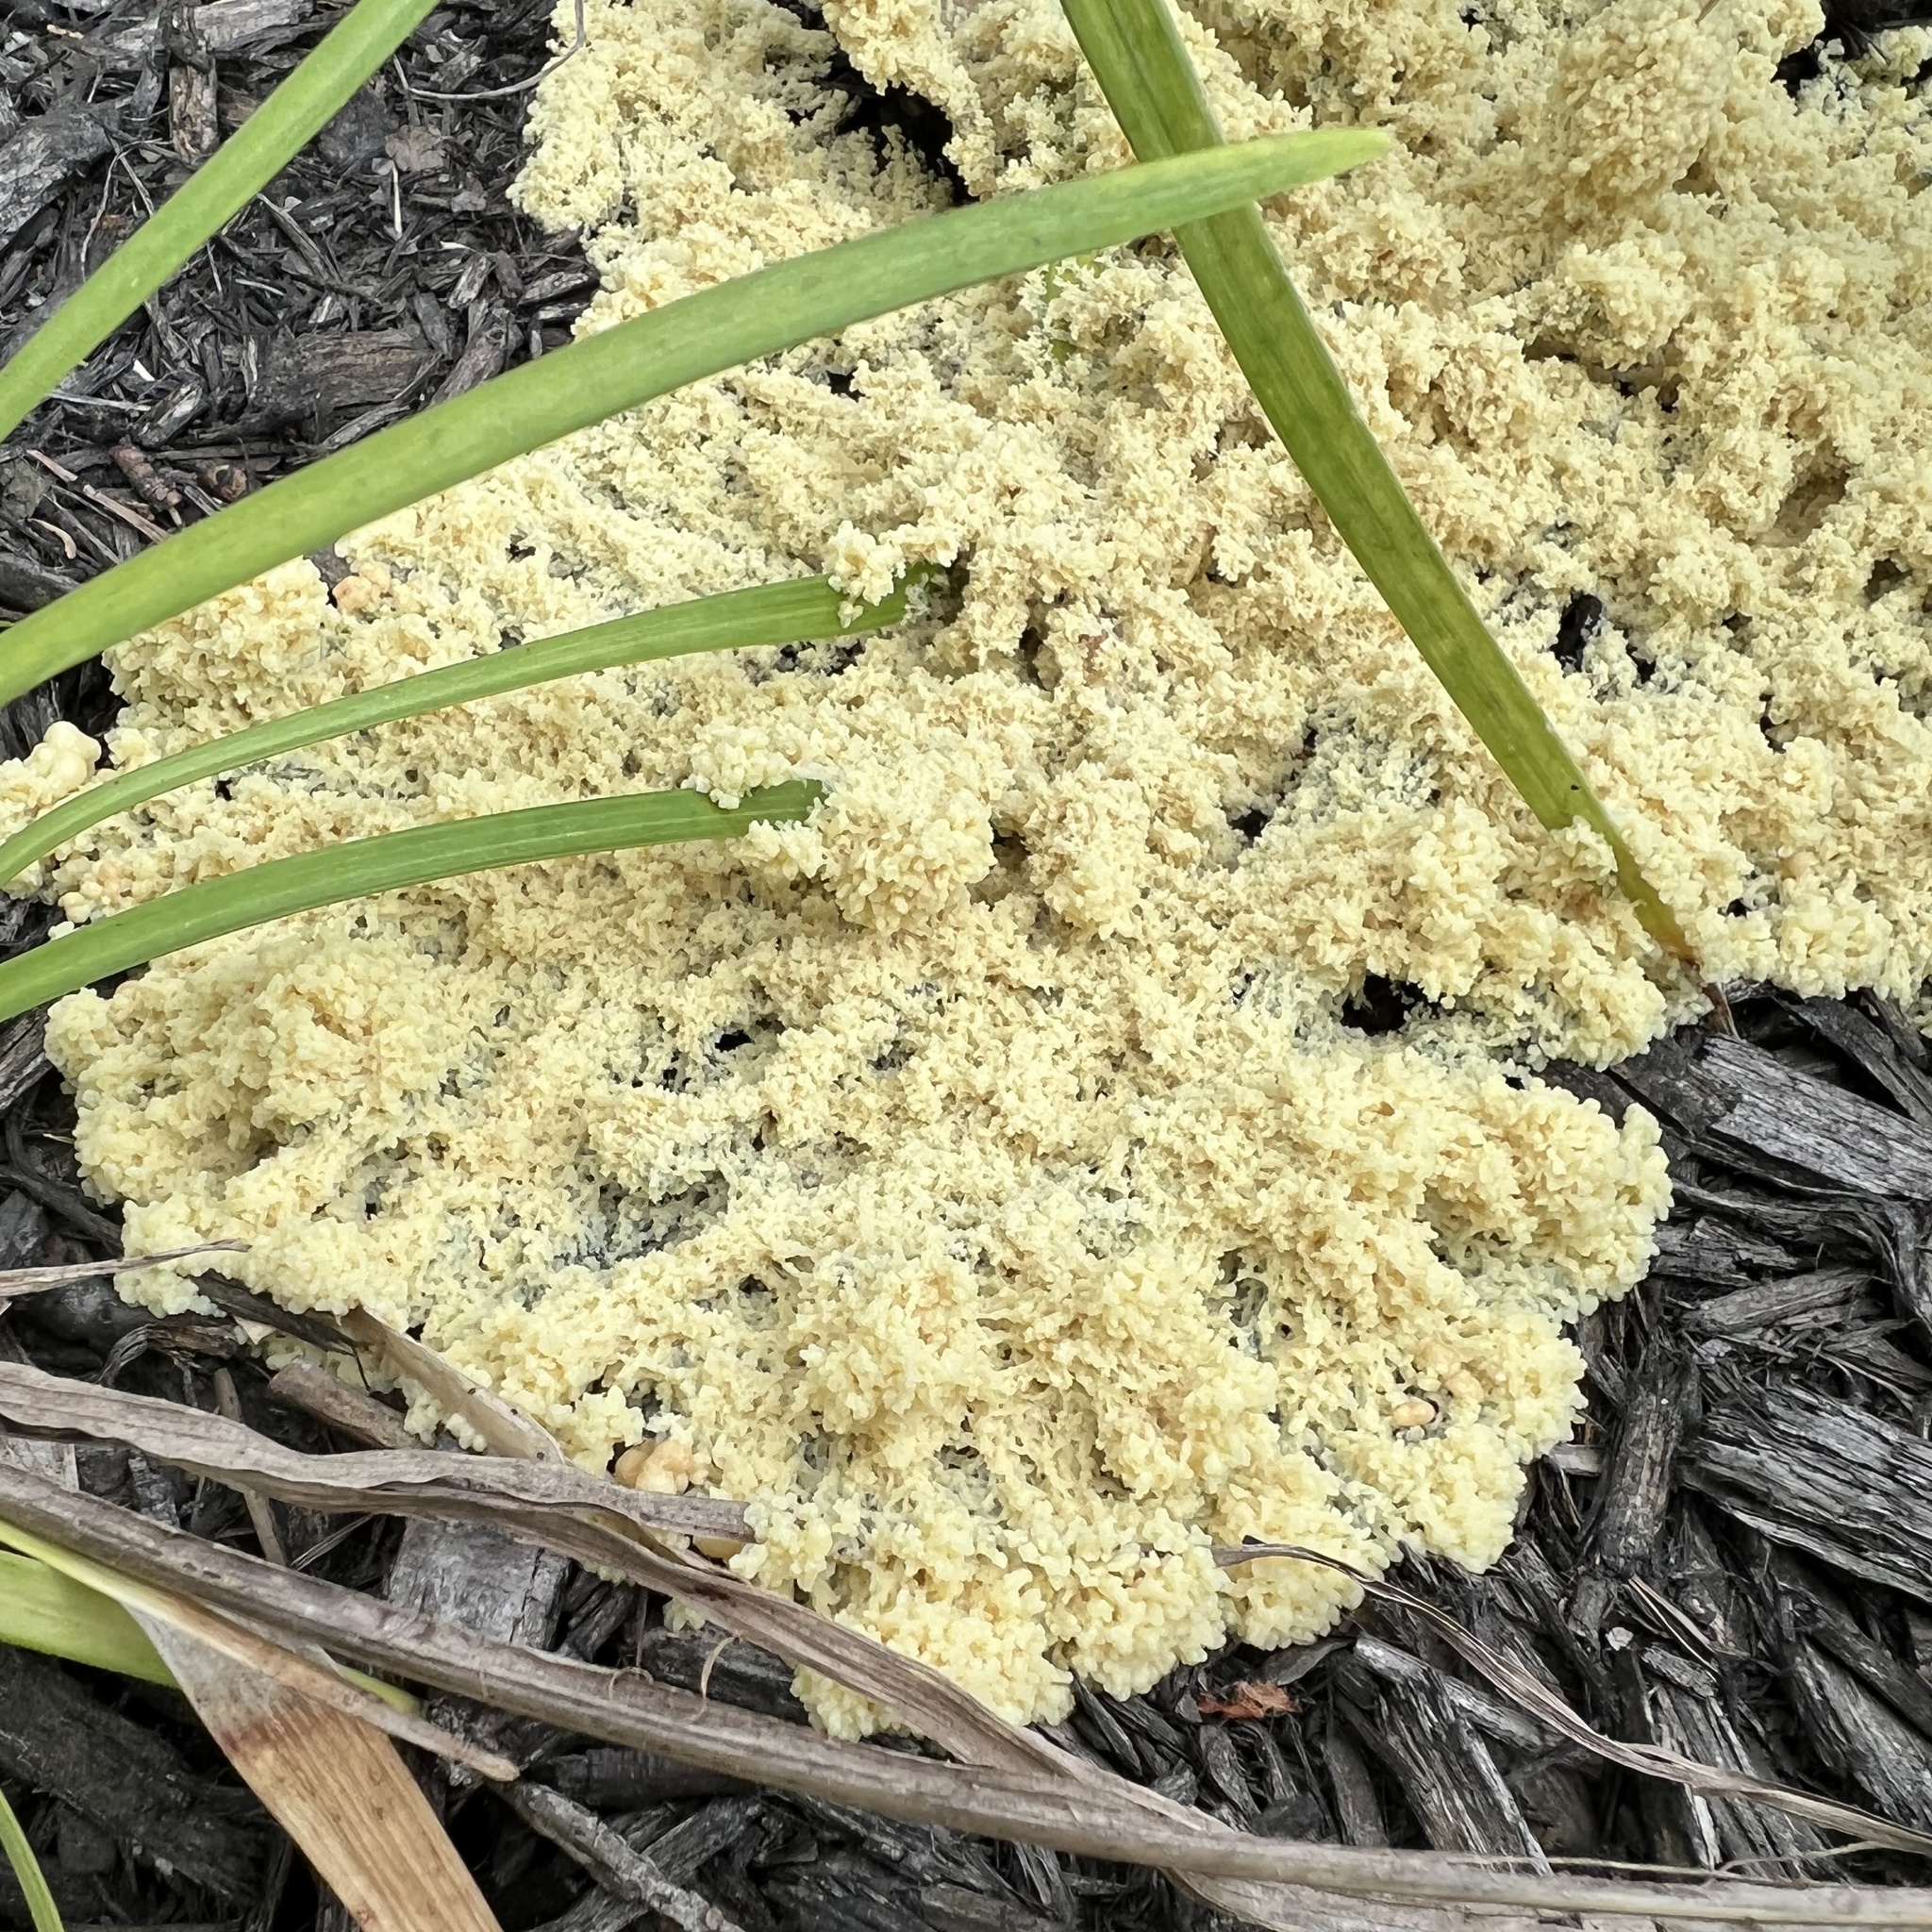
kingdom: Protozoa
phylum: Mycetozoa
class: Myxomycetes
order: Physarales
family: Physaraceae
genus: Fuligo
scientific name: Fuligo septica
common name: Dog vomit slime mold
